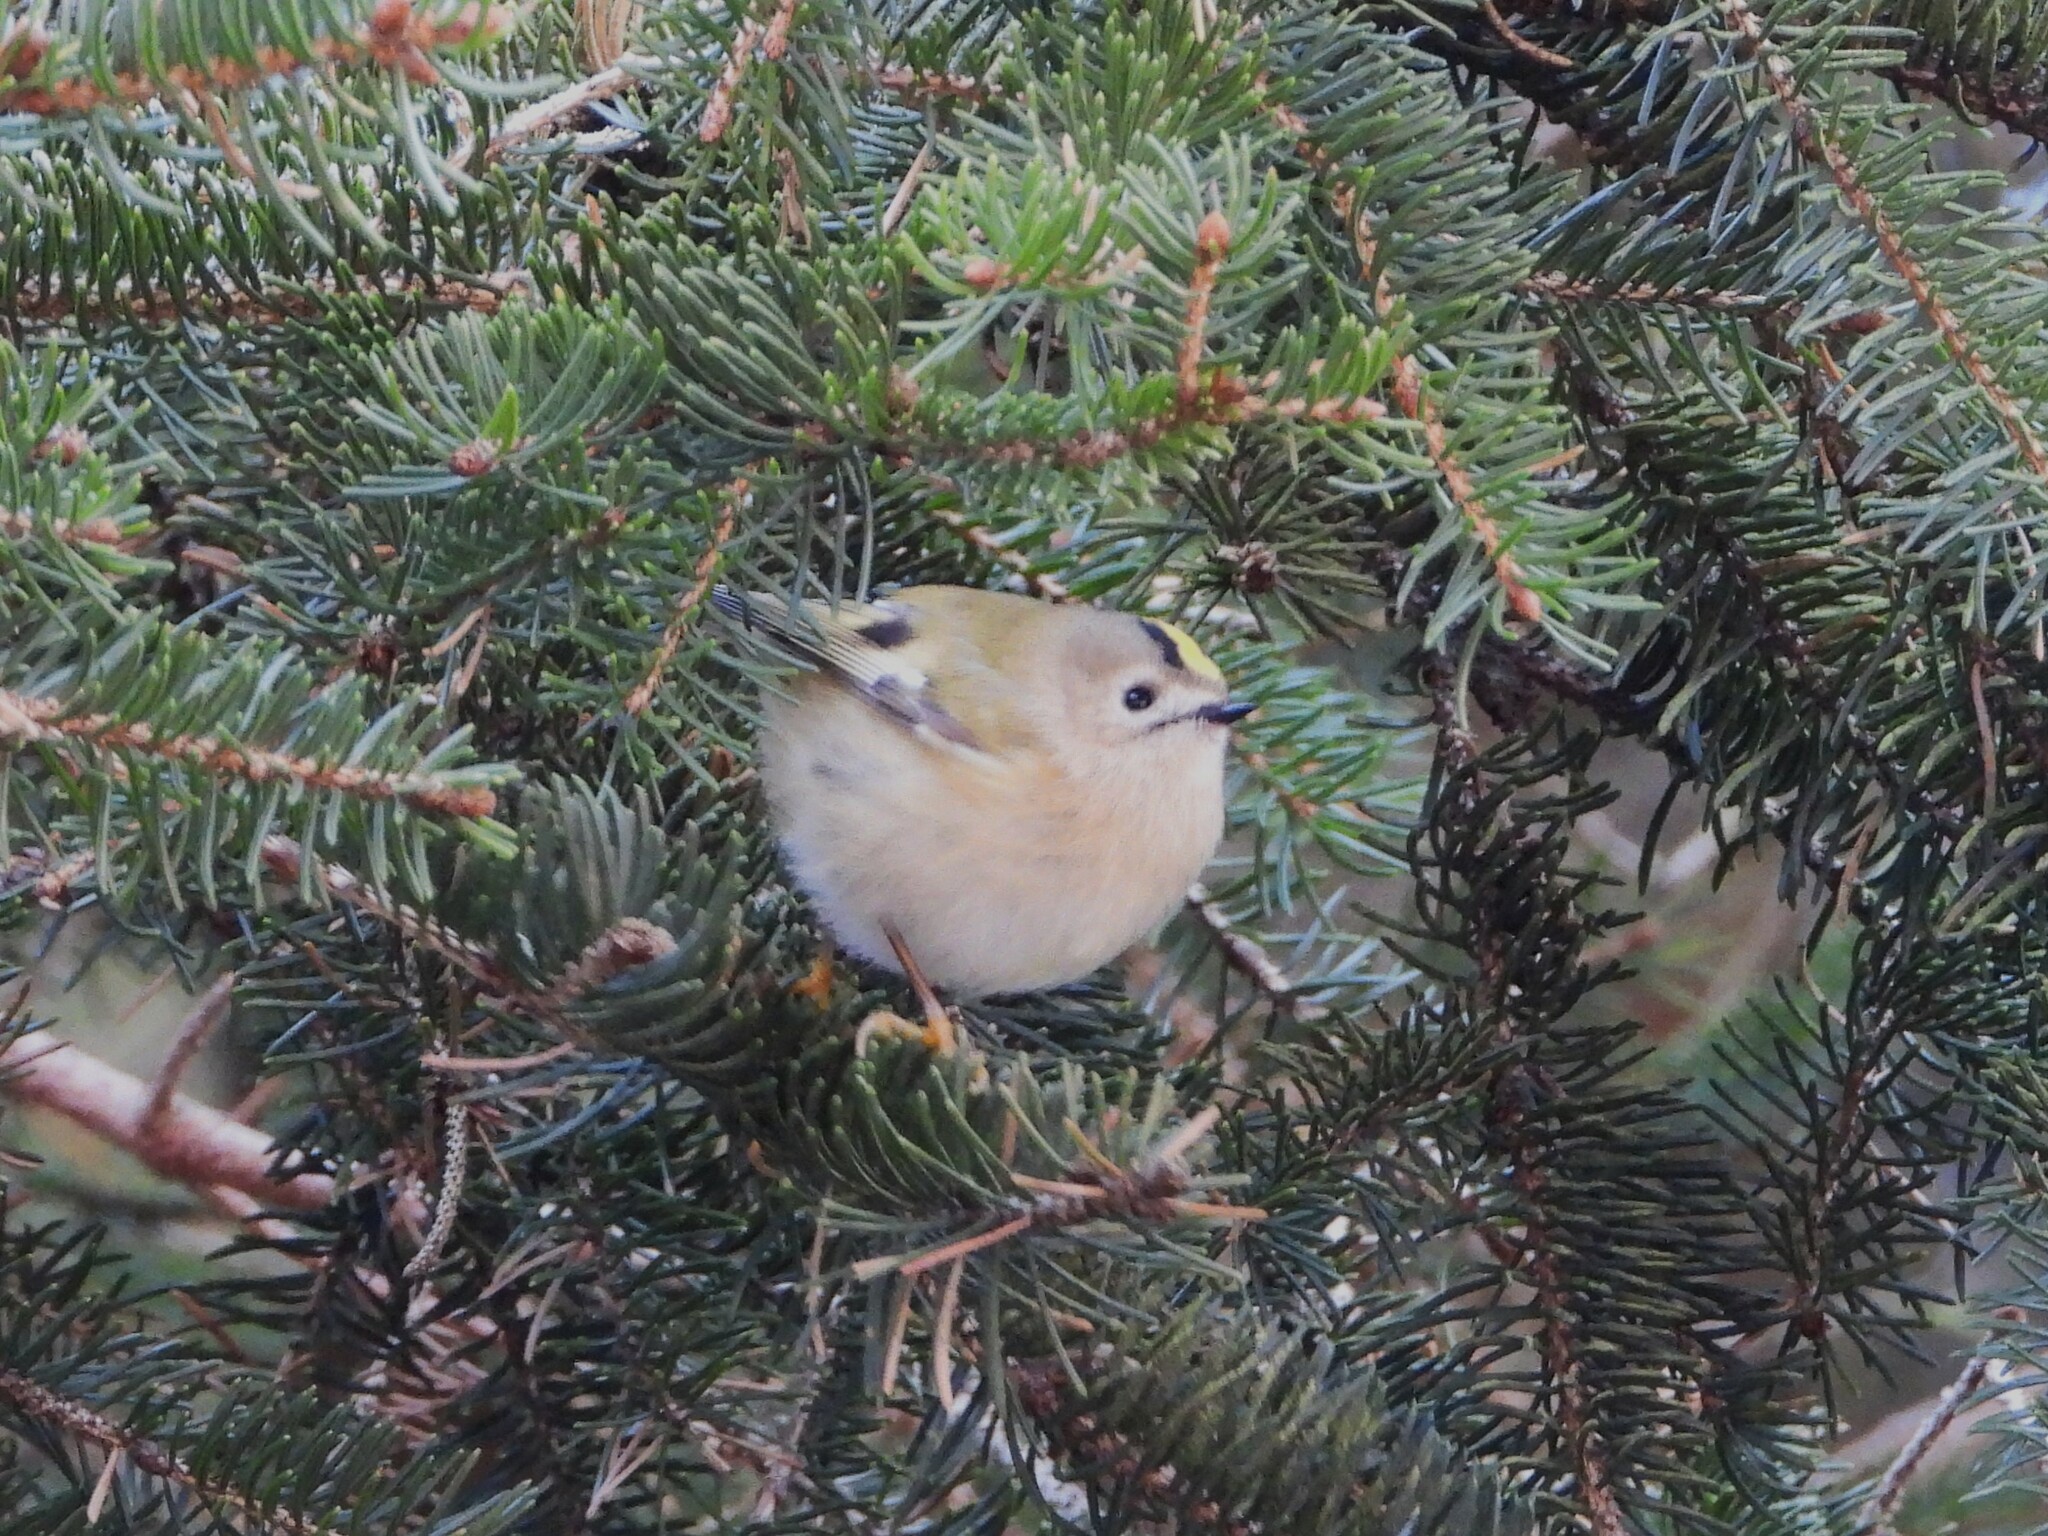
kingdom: Animalia
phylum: Chordata
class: Aves
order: Passeriformes
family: Regulidae
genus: Regulus
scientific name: Regulus regulus
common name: Goldcrest
